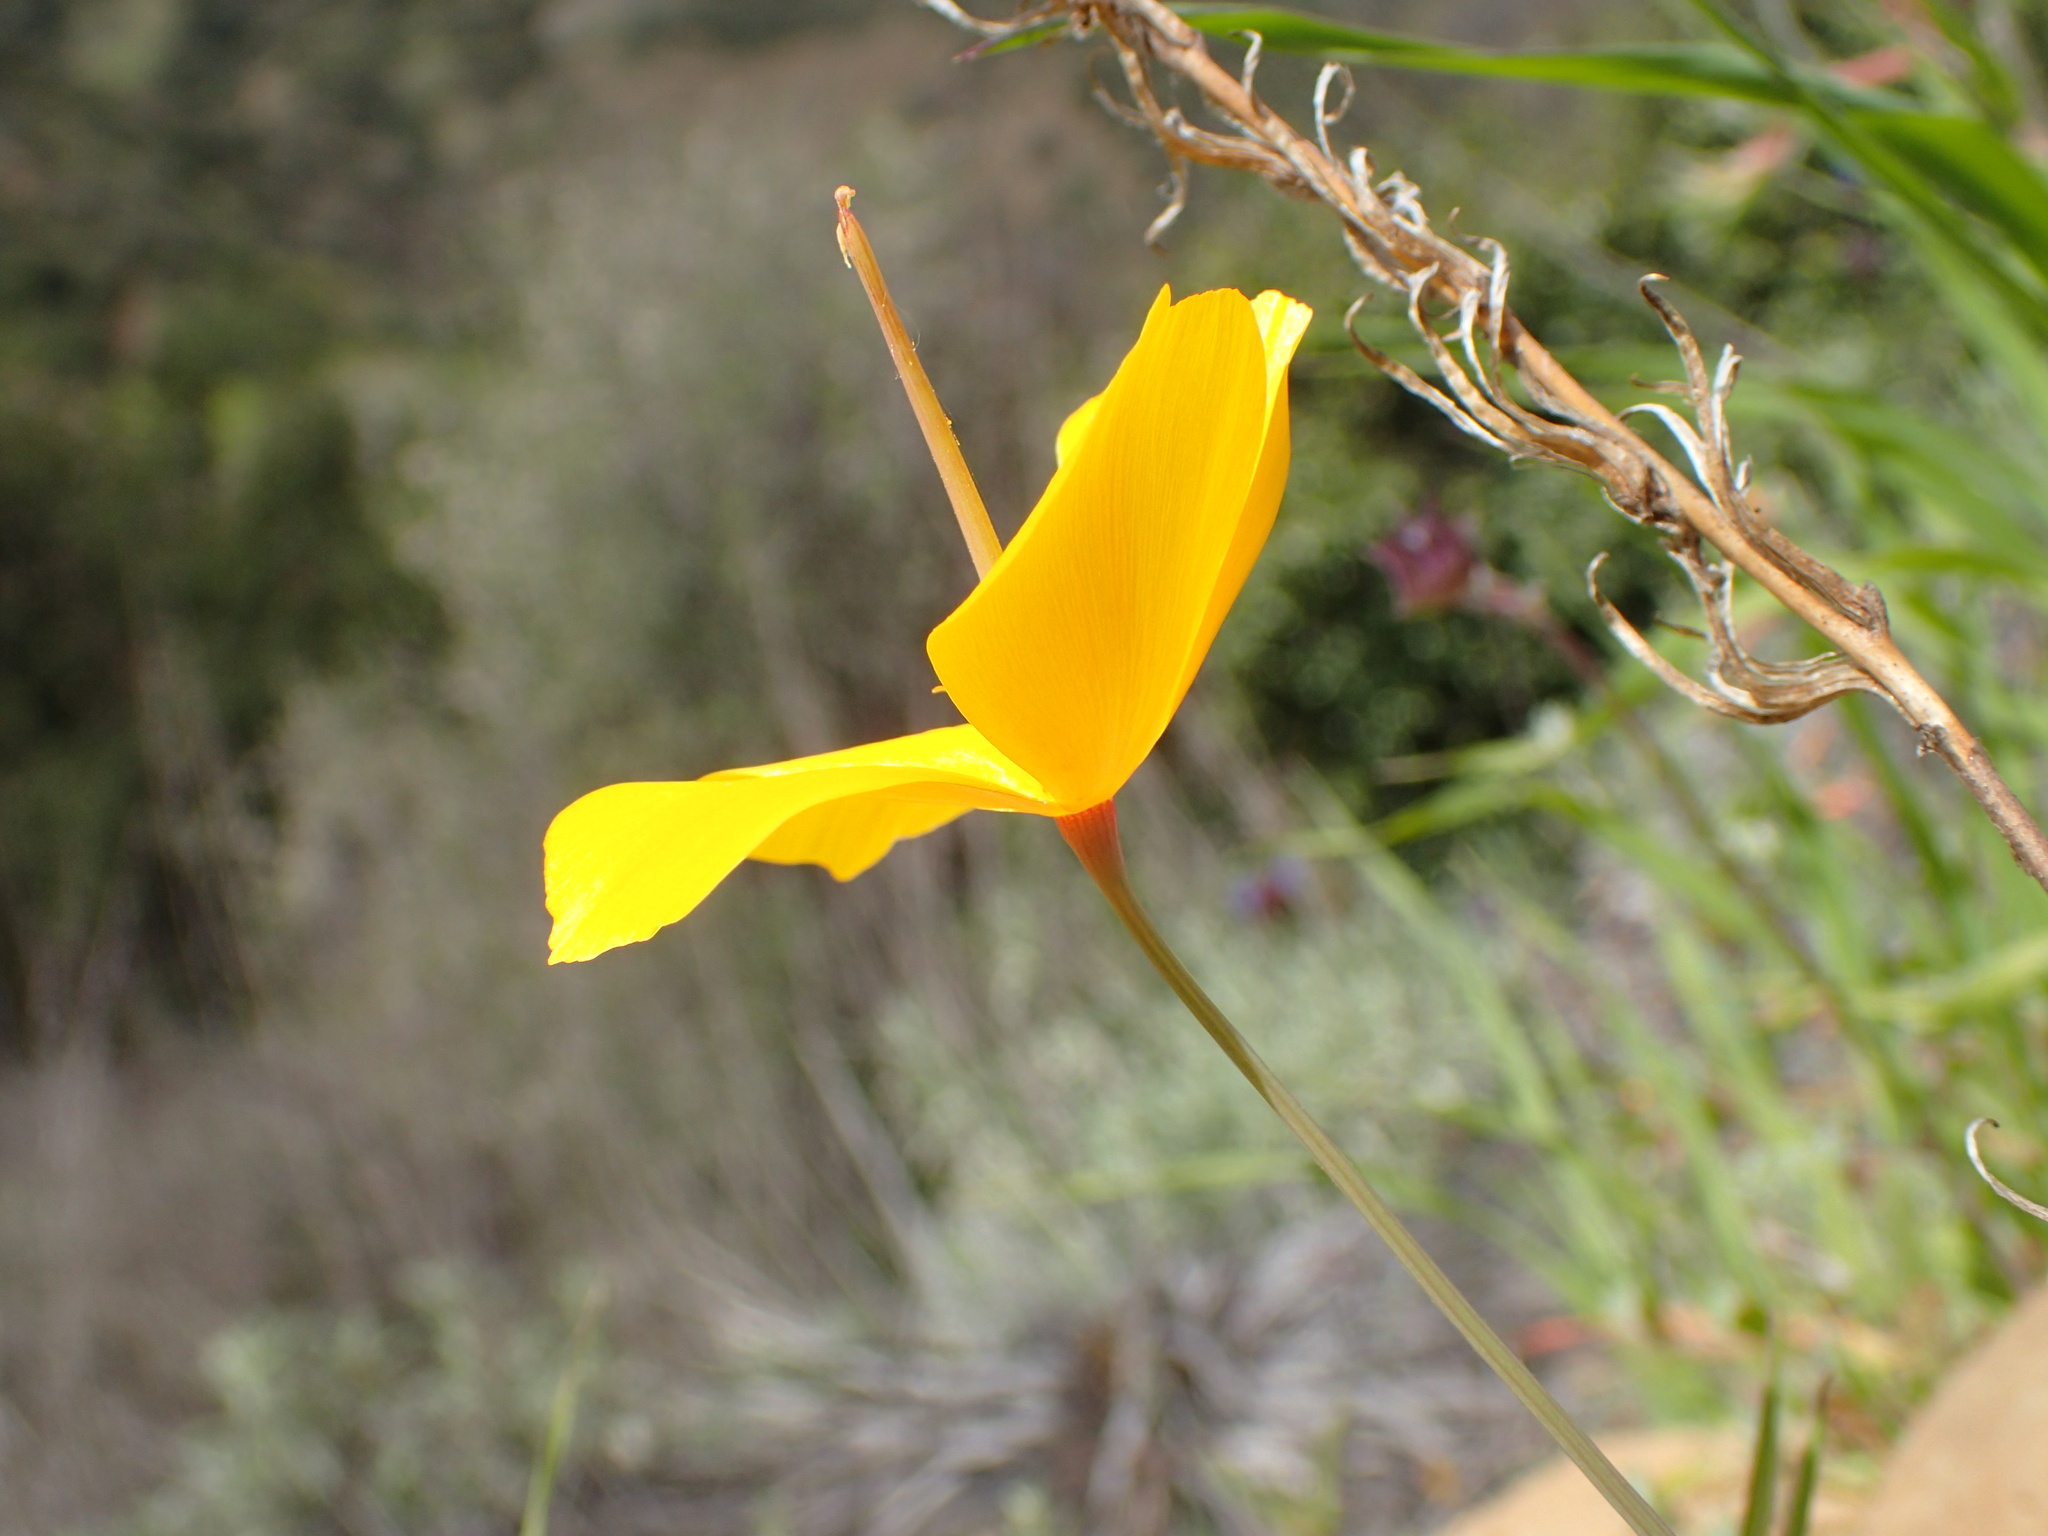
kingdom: Plantae
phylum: Tracheophyta
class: Magnoliopsida
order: Ranunculales
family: Papaveraceae
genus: Eschscholzia
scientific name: Eschscholzia caespitosa
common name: Tufted california-poppy
